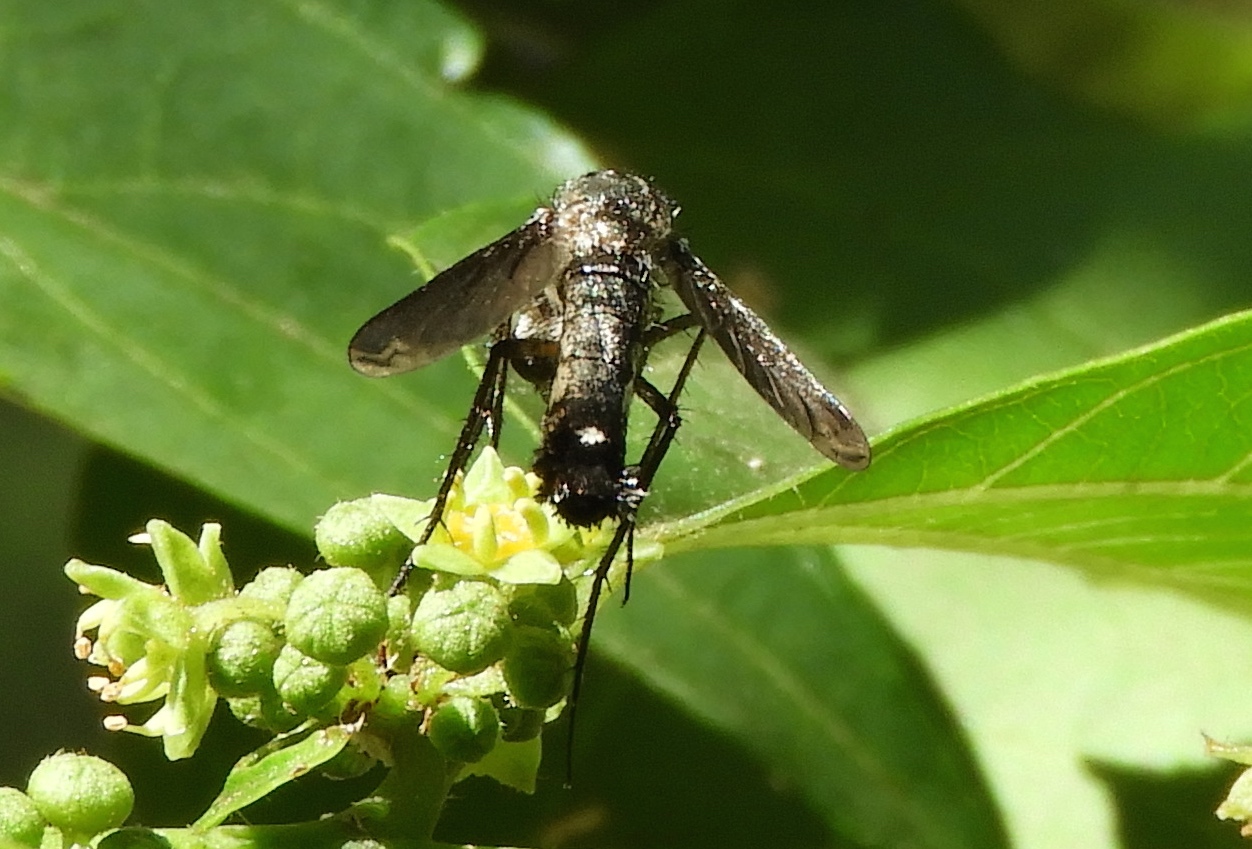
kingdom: Animalia
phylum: Arthropoda
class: Insecta
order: Diptera
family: Bombyliidae
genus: Lepidophora
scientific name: Lepidophora vetusta
